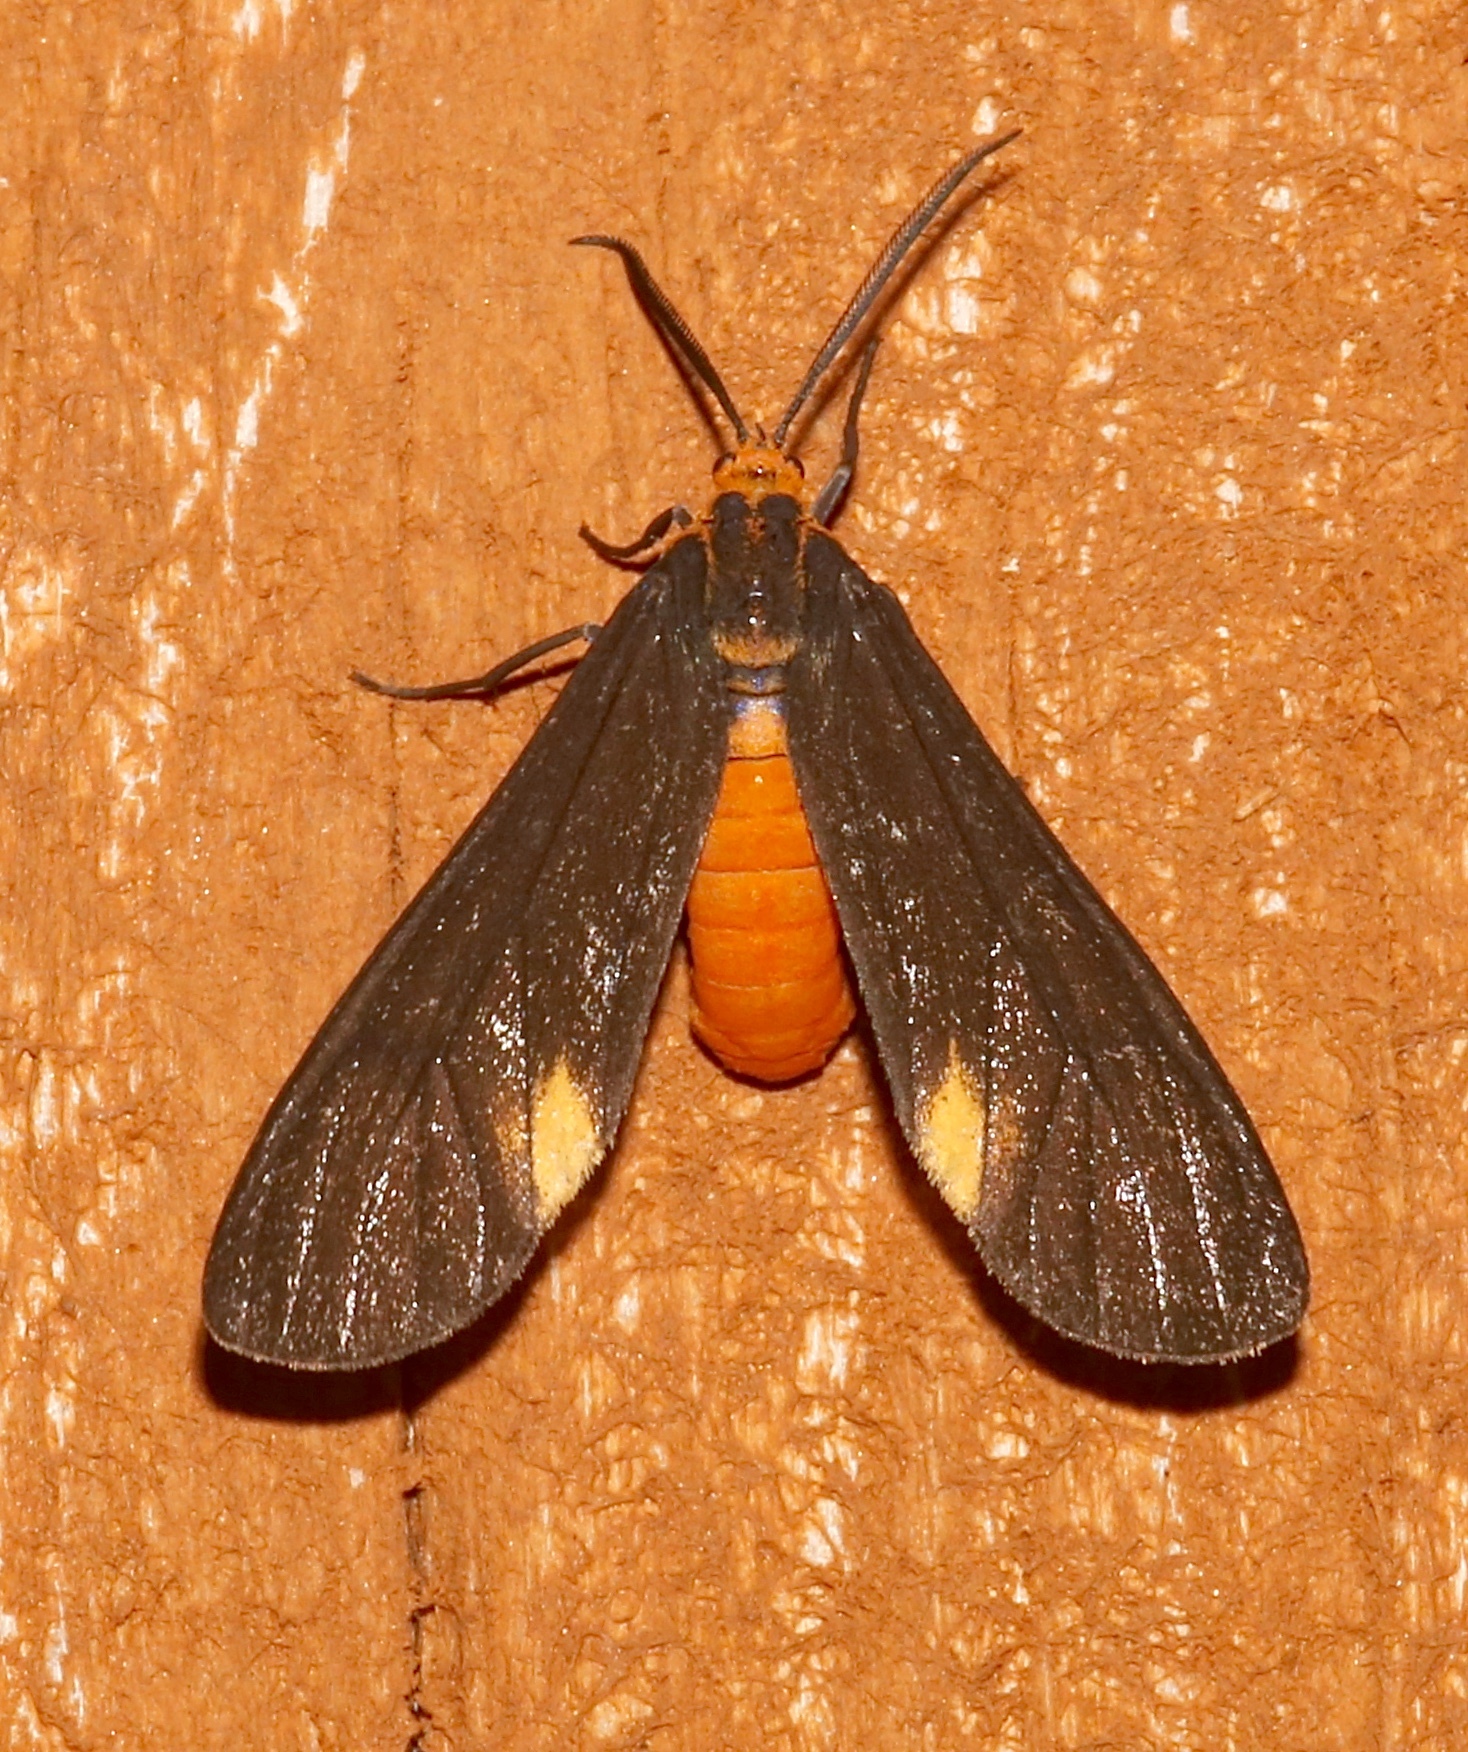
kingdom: Animalia
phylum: Arthropoda
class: Insecta
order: Lepidoptera
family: Erebidae
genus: Dahana
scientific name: Dahana atripennis
